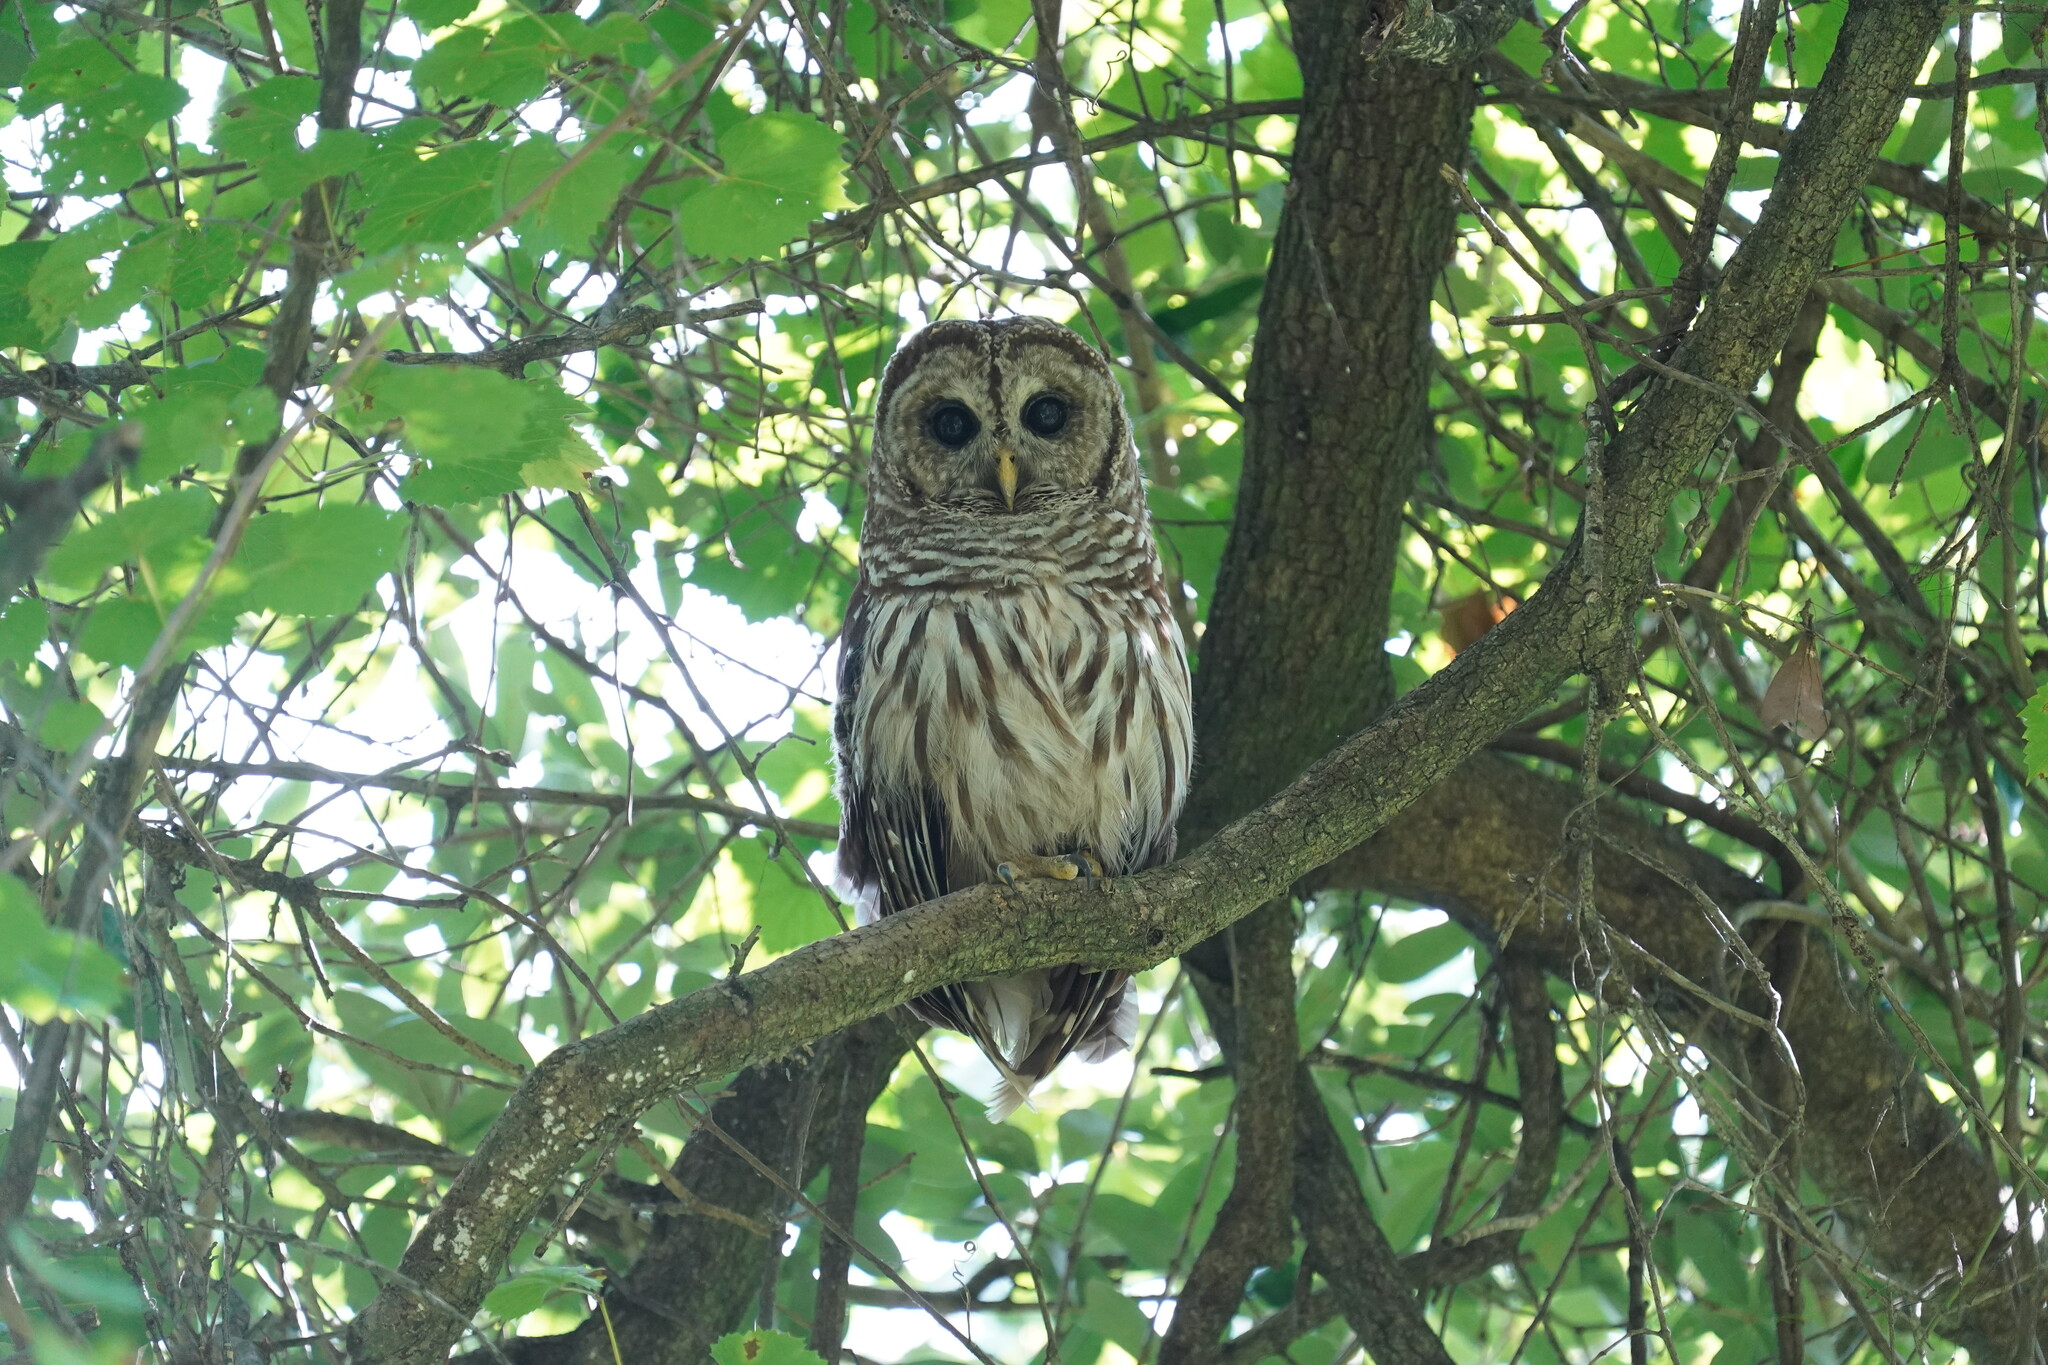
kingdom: Animalia
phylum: Chordata
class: Aves
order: Strigiformes
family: Strigidae
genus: Strix
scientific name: Strix varia
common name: Barred owl
